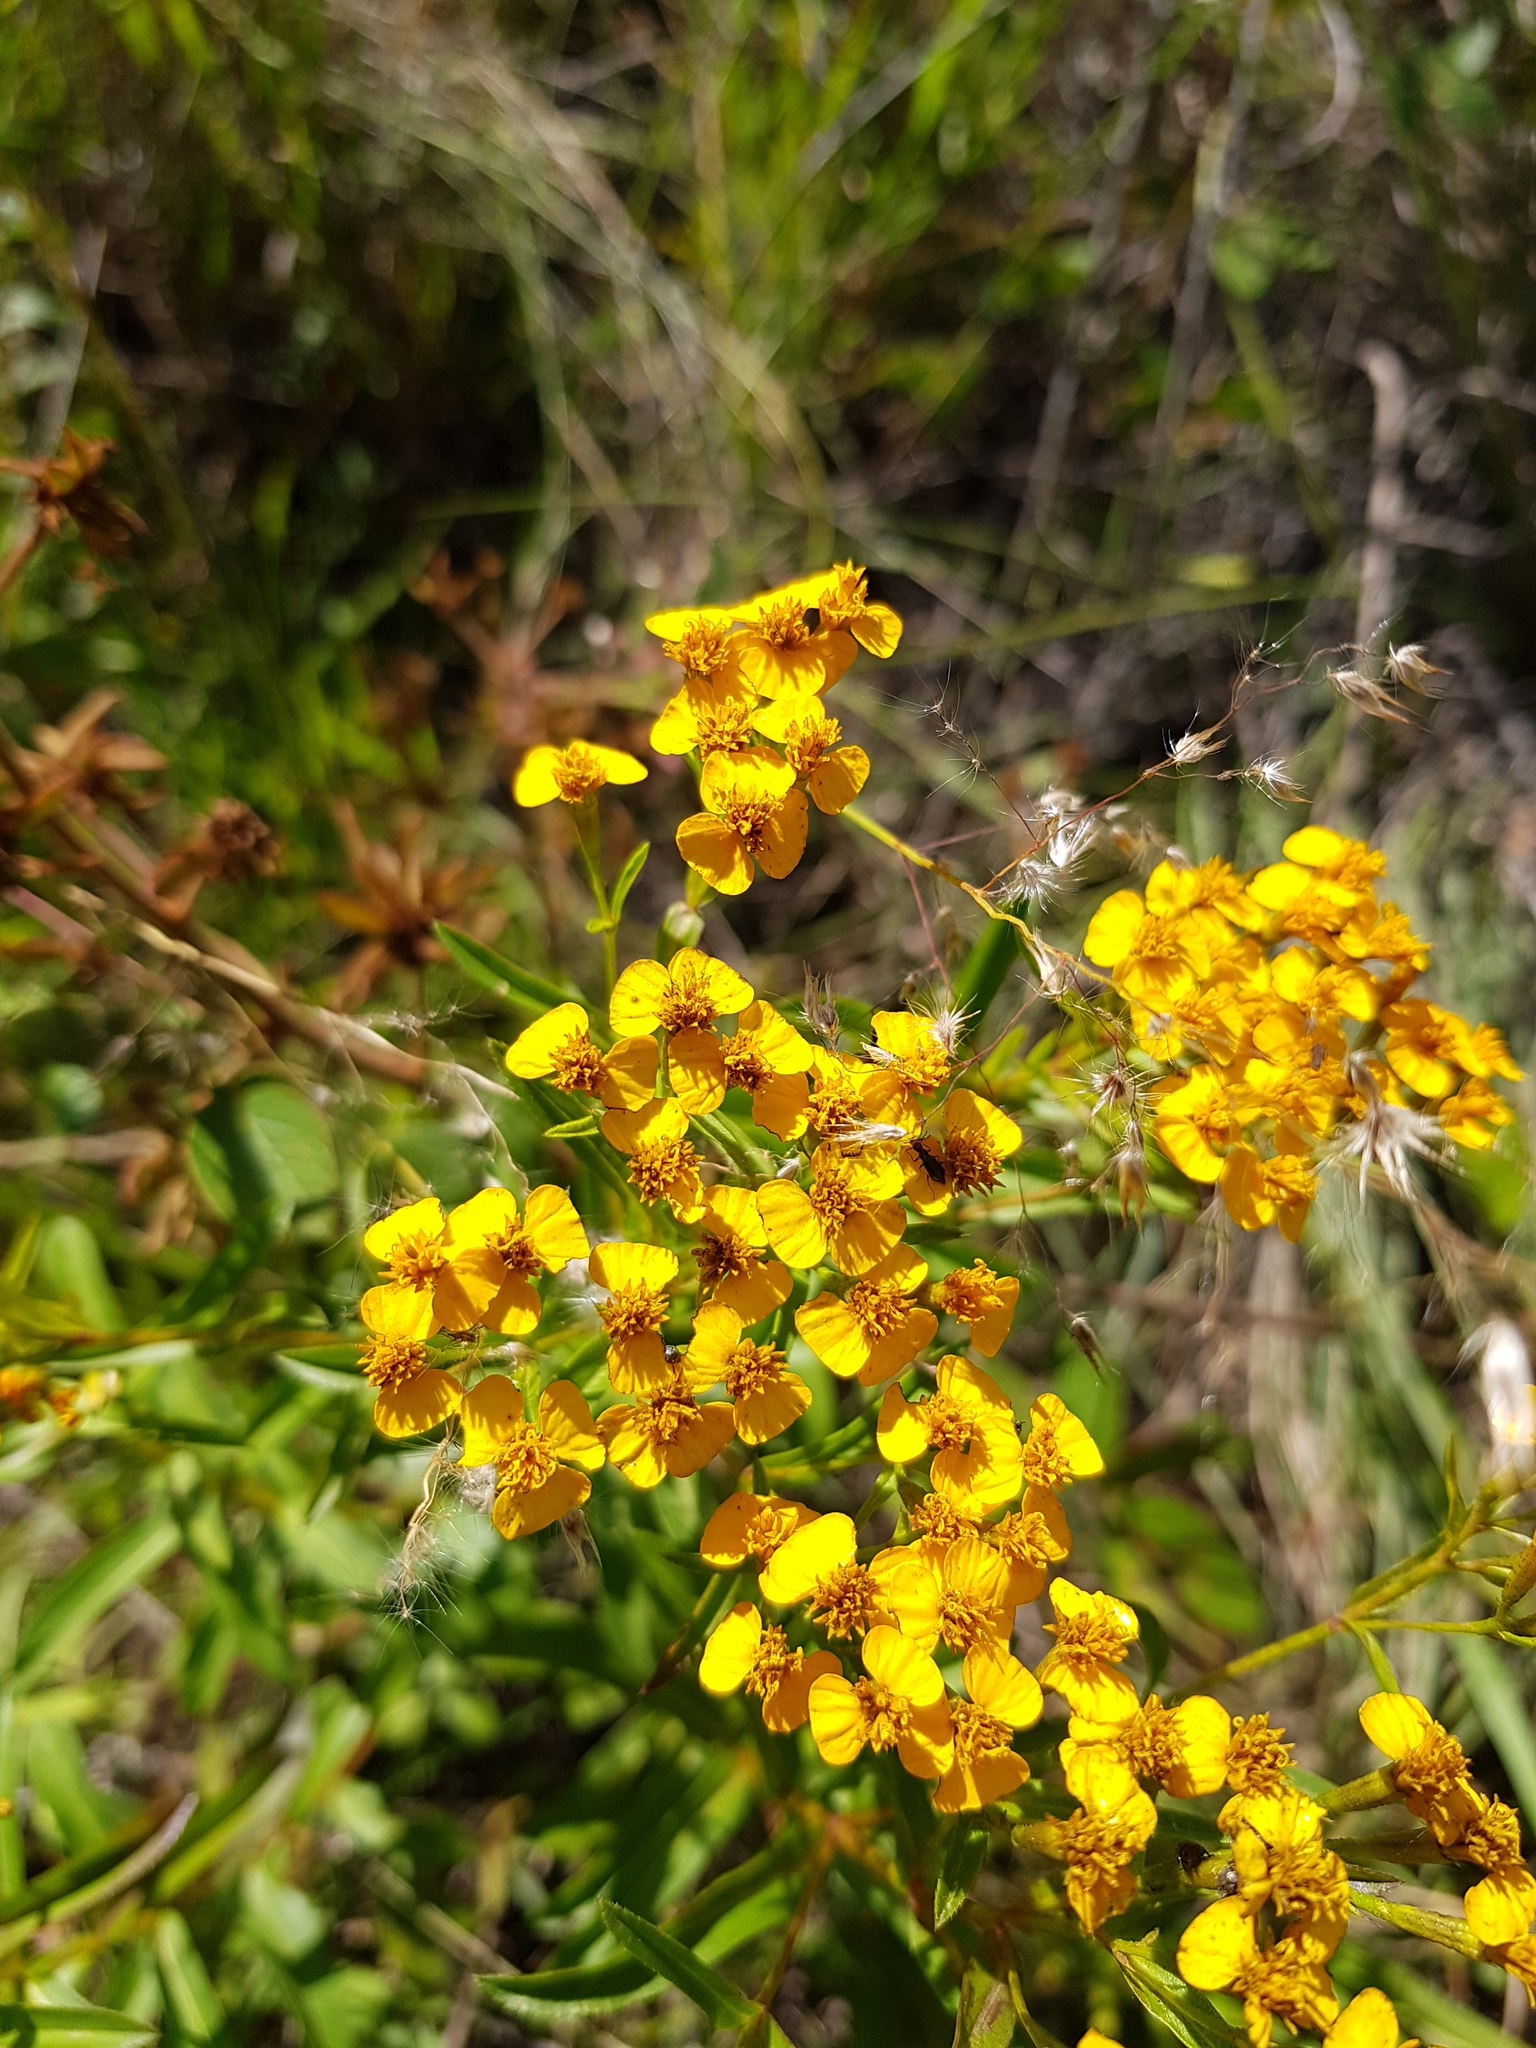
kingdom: Plantae
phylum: Tracheophyta
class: Magnoliopsida
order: Asterales
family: Asteraceae
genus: Tagetes
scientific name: Tagetes lucida
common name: Sweetscented marigold
